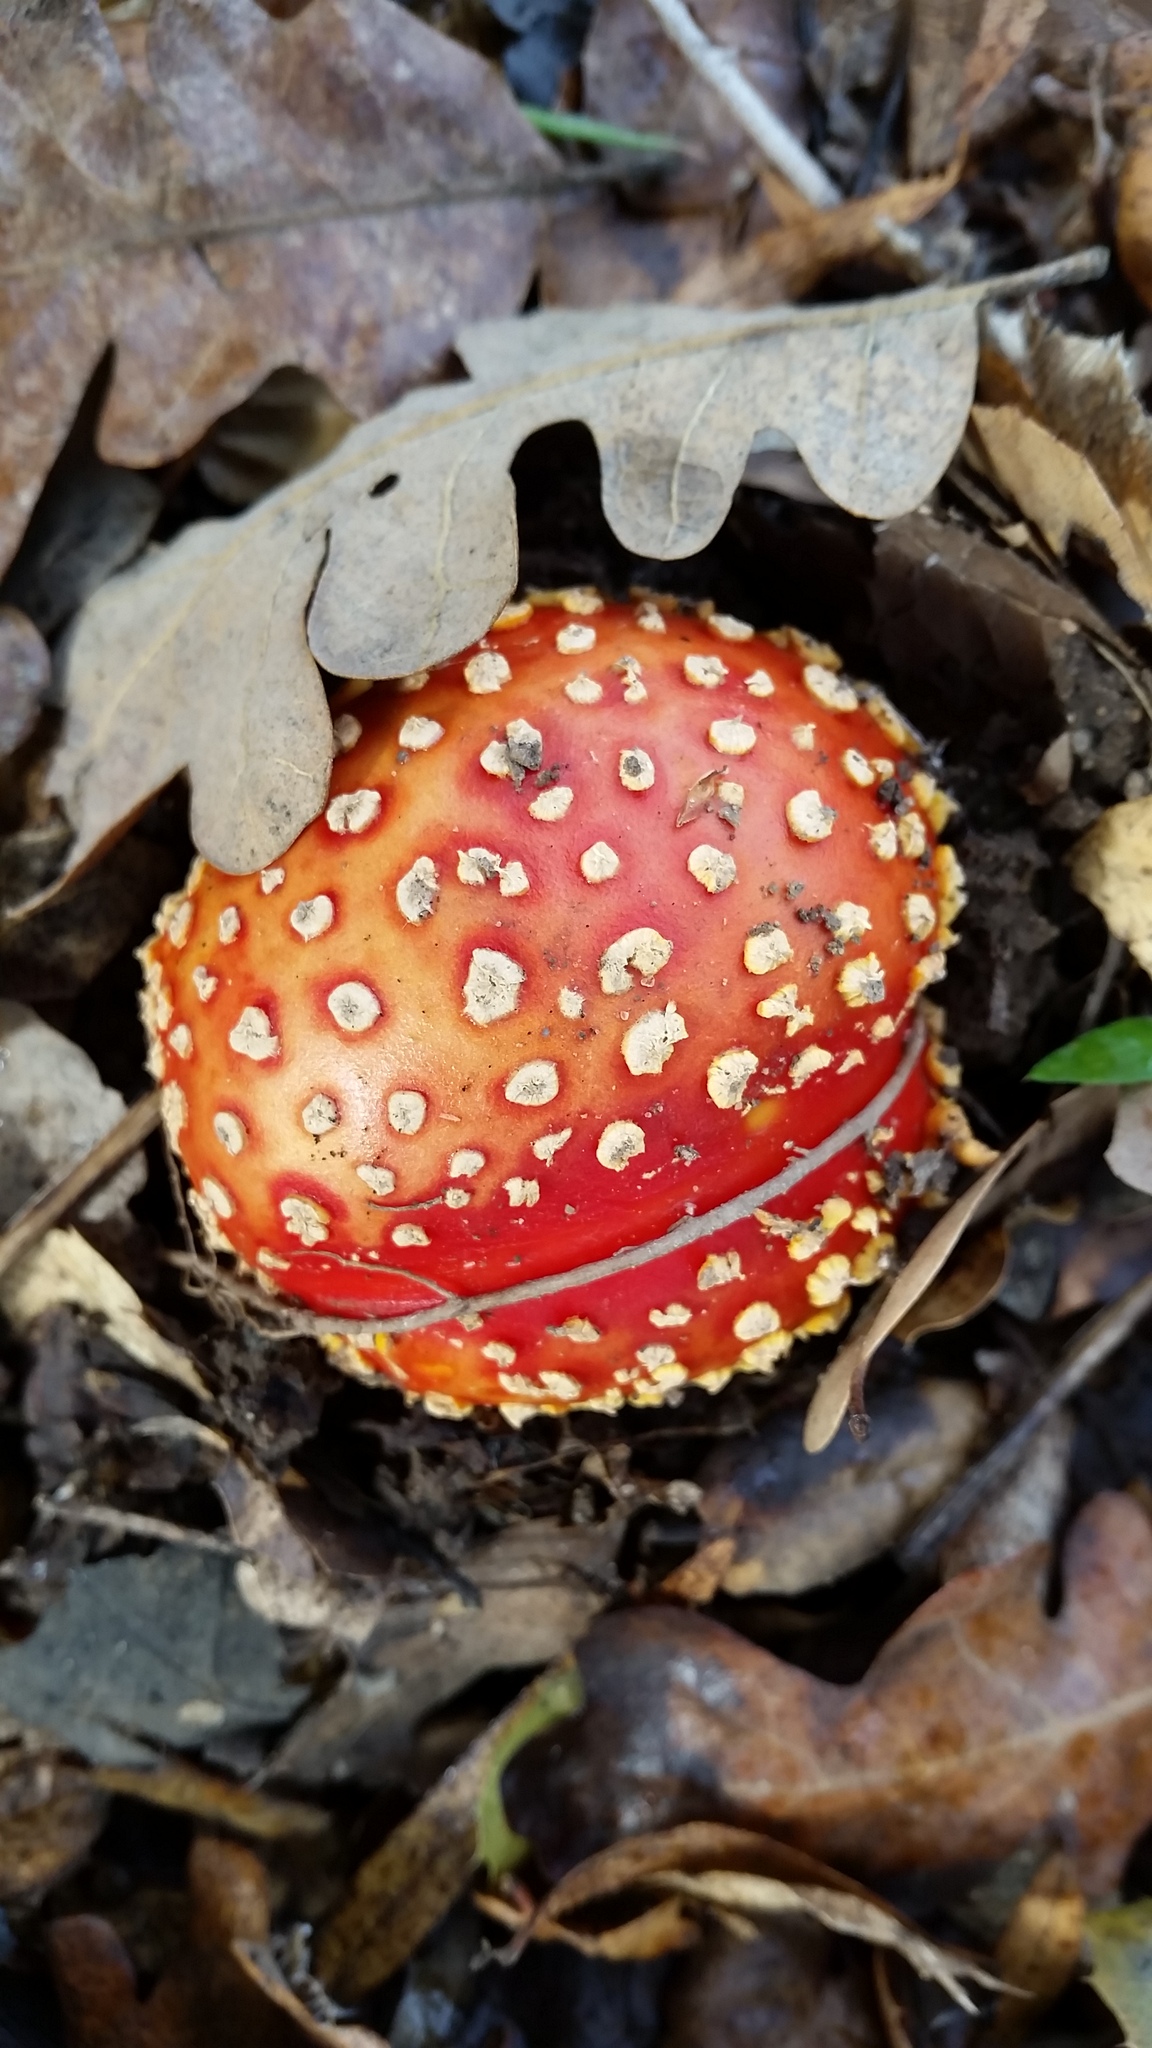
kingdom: Fungi
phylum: Basidiomycota
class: Agaricomycetes
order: Agaricales
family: Amanitaceae
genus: Amanita
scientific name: Amanita muscaria
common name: Fly agaric
